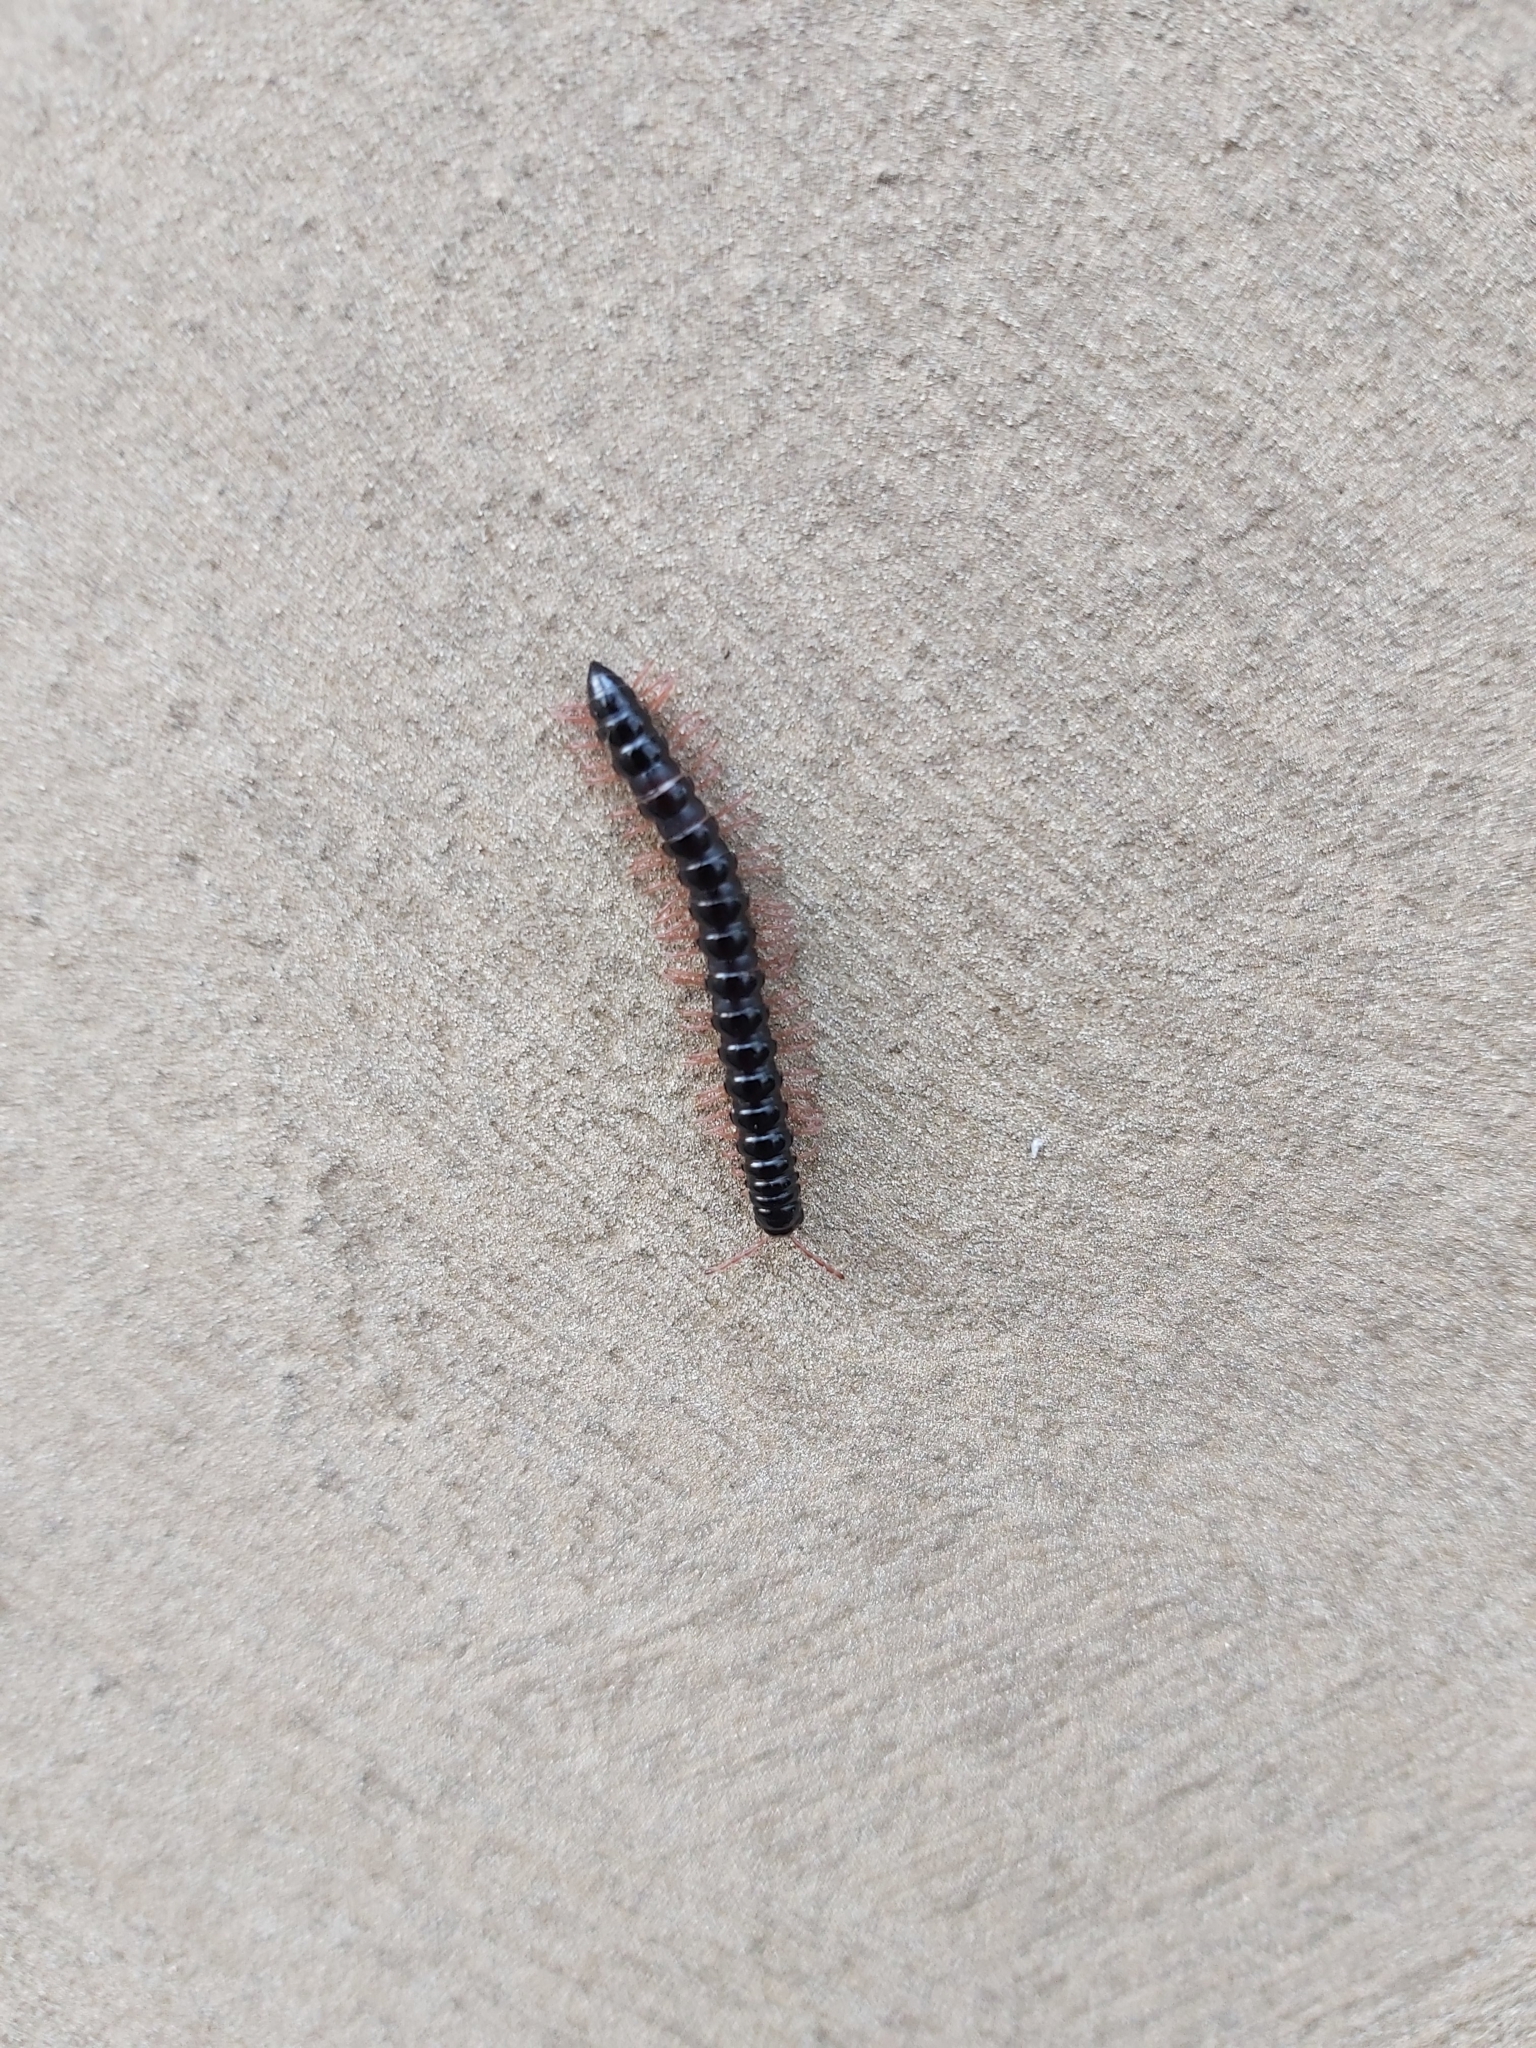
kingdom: Animalia
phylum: Arthropoda
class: Diplopoda
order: Polydesmida
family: Paradoxosomatidae
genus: Heterocladosoma
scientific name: Heterocladosoma
